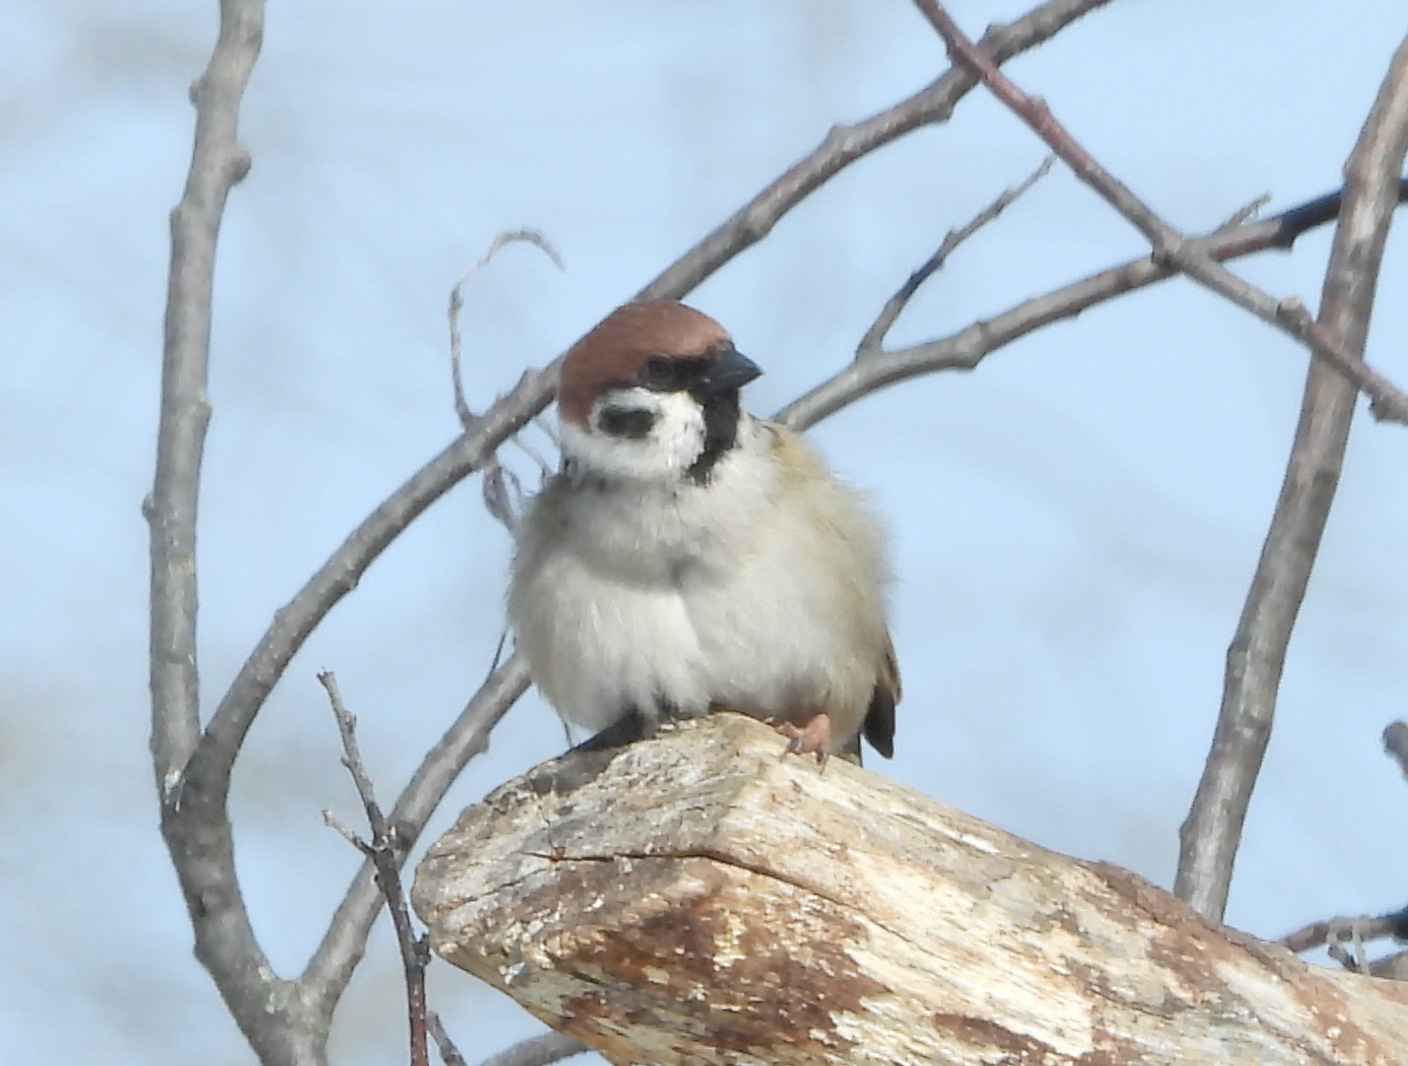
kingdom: Animalia
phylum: Chordata
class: Aves
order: Passeriformes
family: Passeridae
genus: Passer
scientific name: Passer montanus
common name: Eurasian tree sparrow
